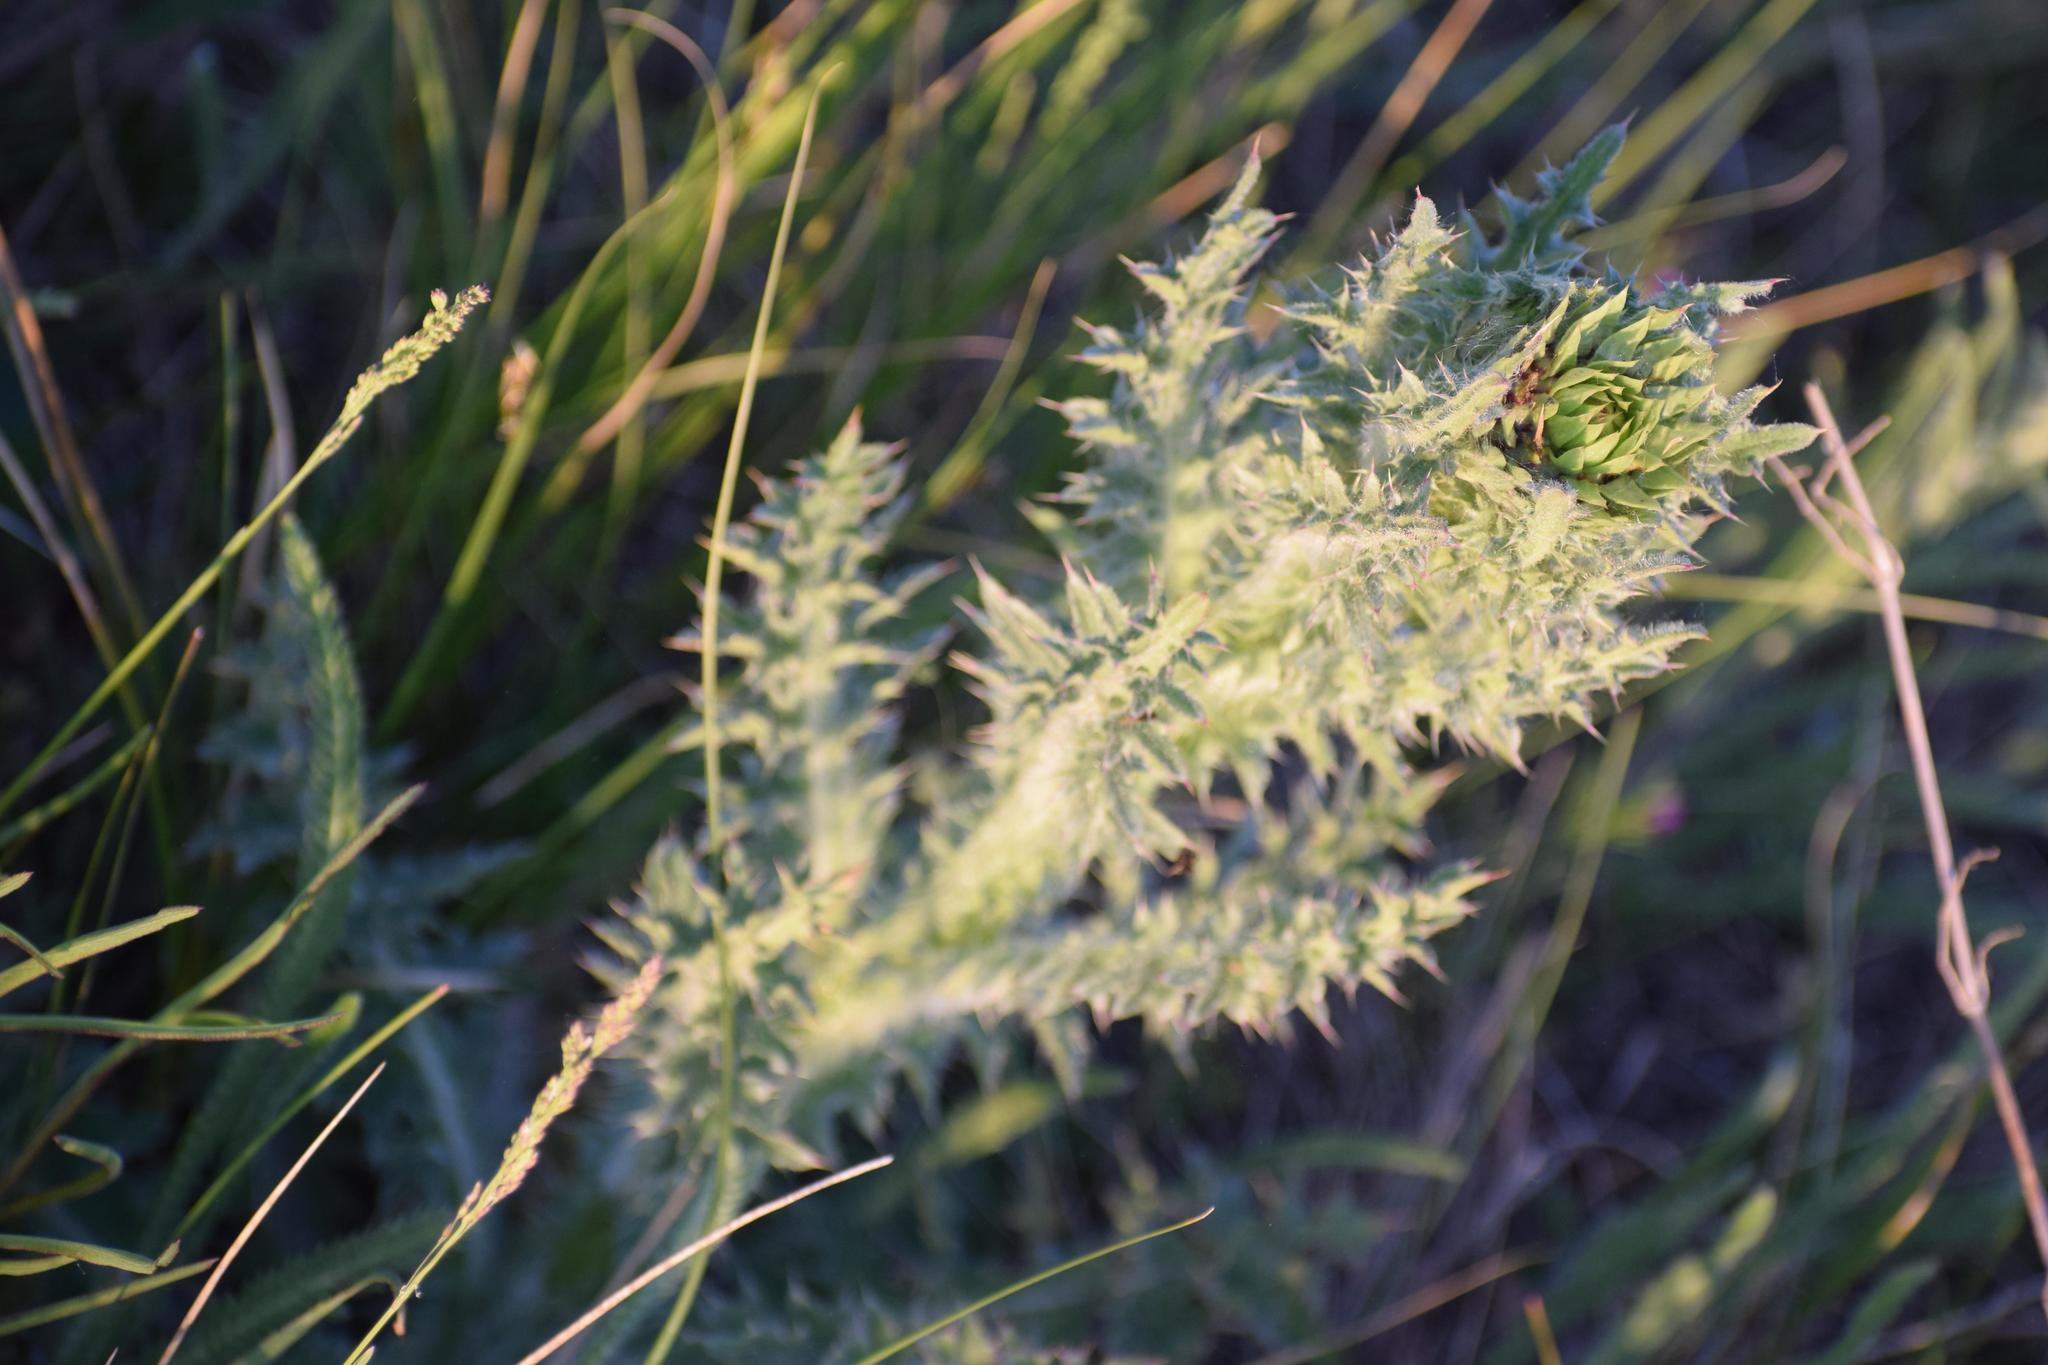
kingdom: Plantae
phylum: Tracheophyta
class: Magnoliopsida
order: Asterales
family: Asteraceae
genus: Carduus
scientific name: Carduus nutans
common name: Musk thistle
